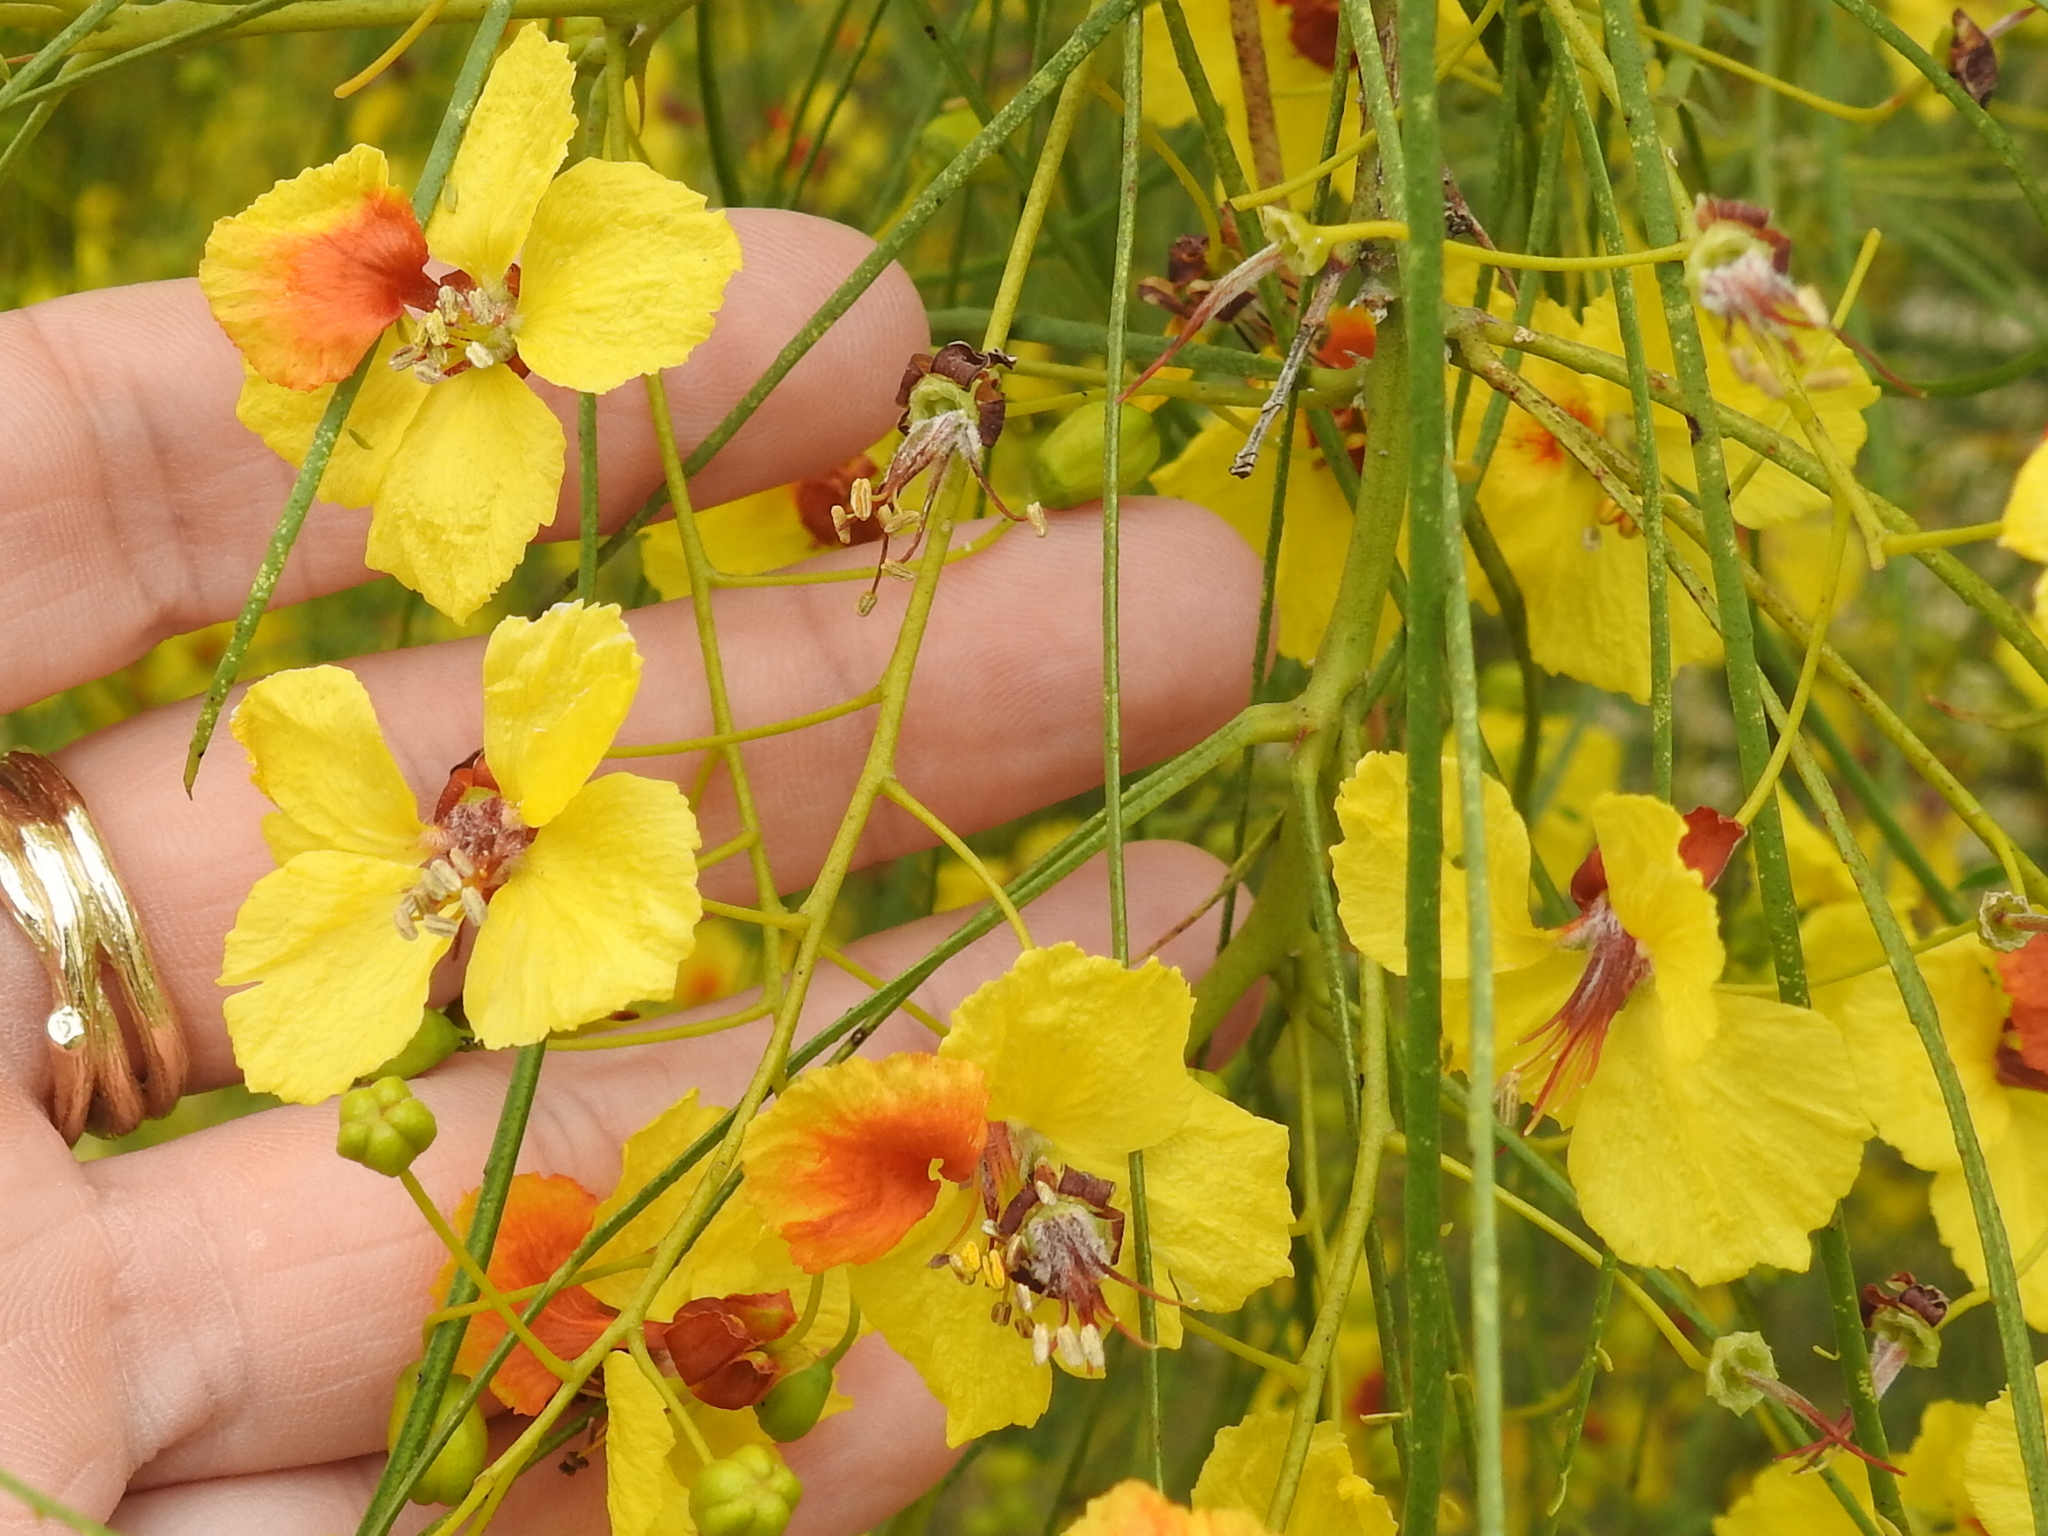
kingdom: Plantae
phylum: Tracheophyta
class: Magnoliopsida
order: Fabales
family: Fabaceae
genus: Parkinsonia
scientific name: Parkinsonia aculeata
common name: Jerusalem thorn
